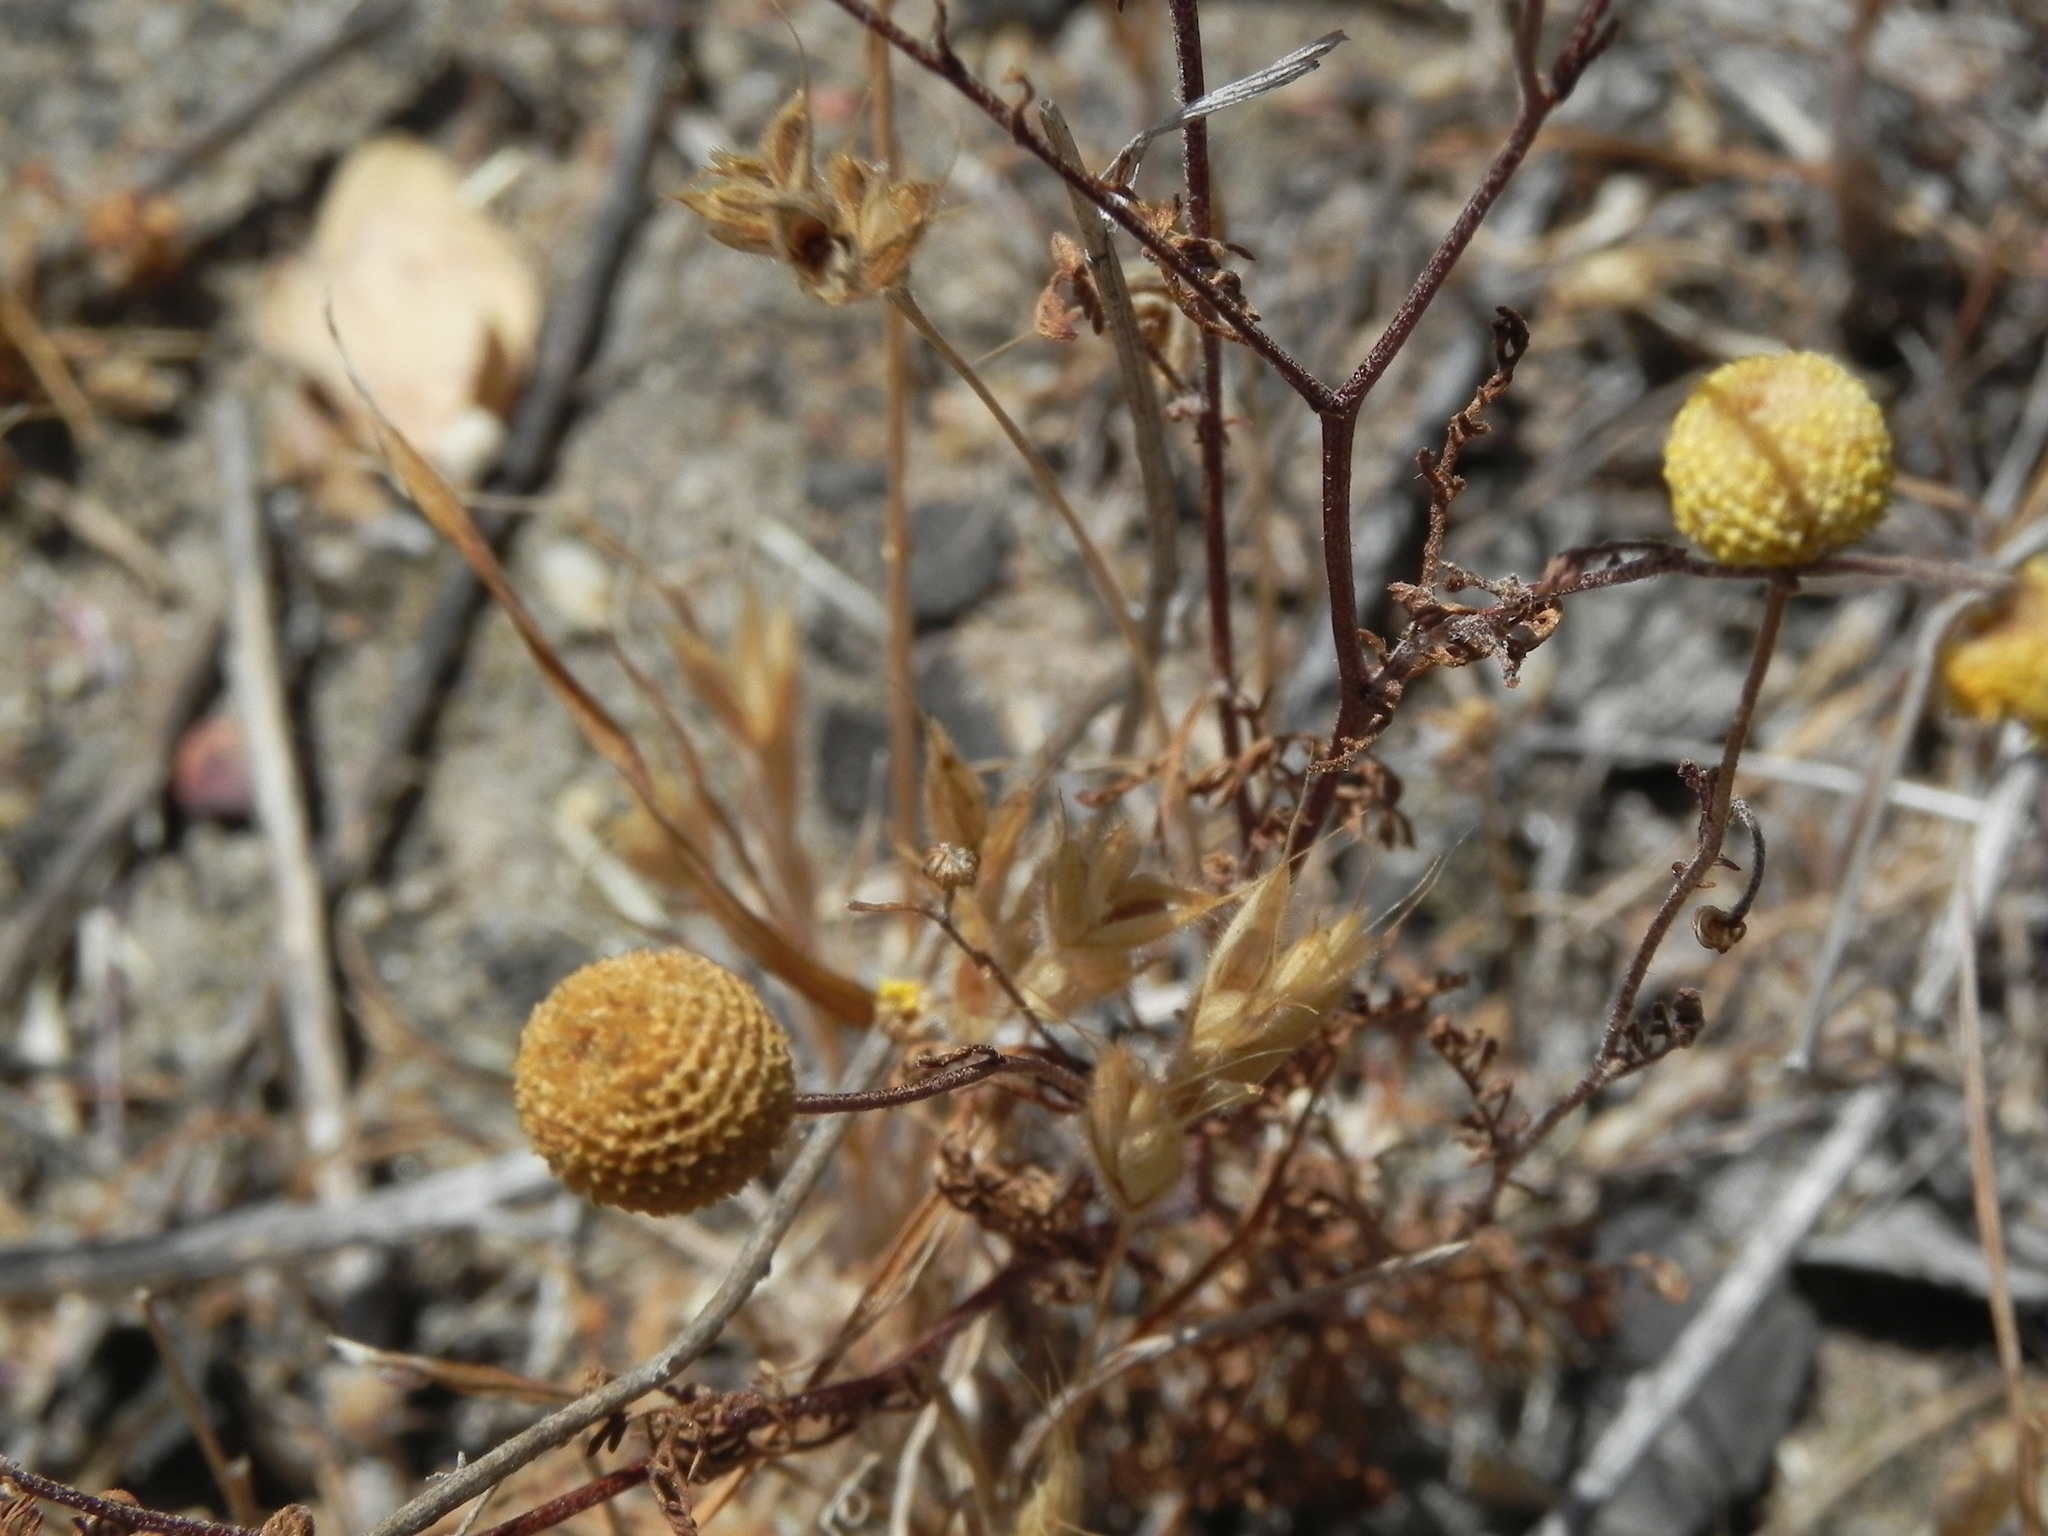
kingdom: Plantae
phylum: Tracheophyta
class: Magnoliopsida
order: Asterales
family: Asteraceae
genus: Oncosiphon
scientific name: Oncosiphon pilulifer
